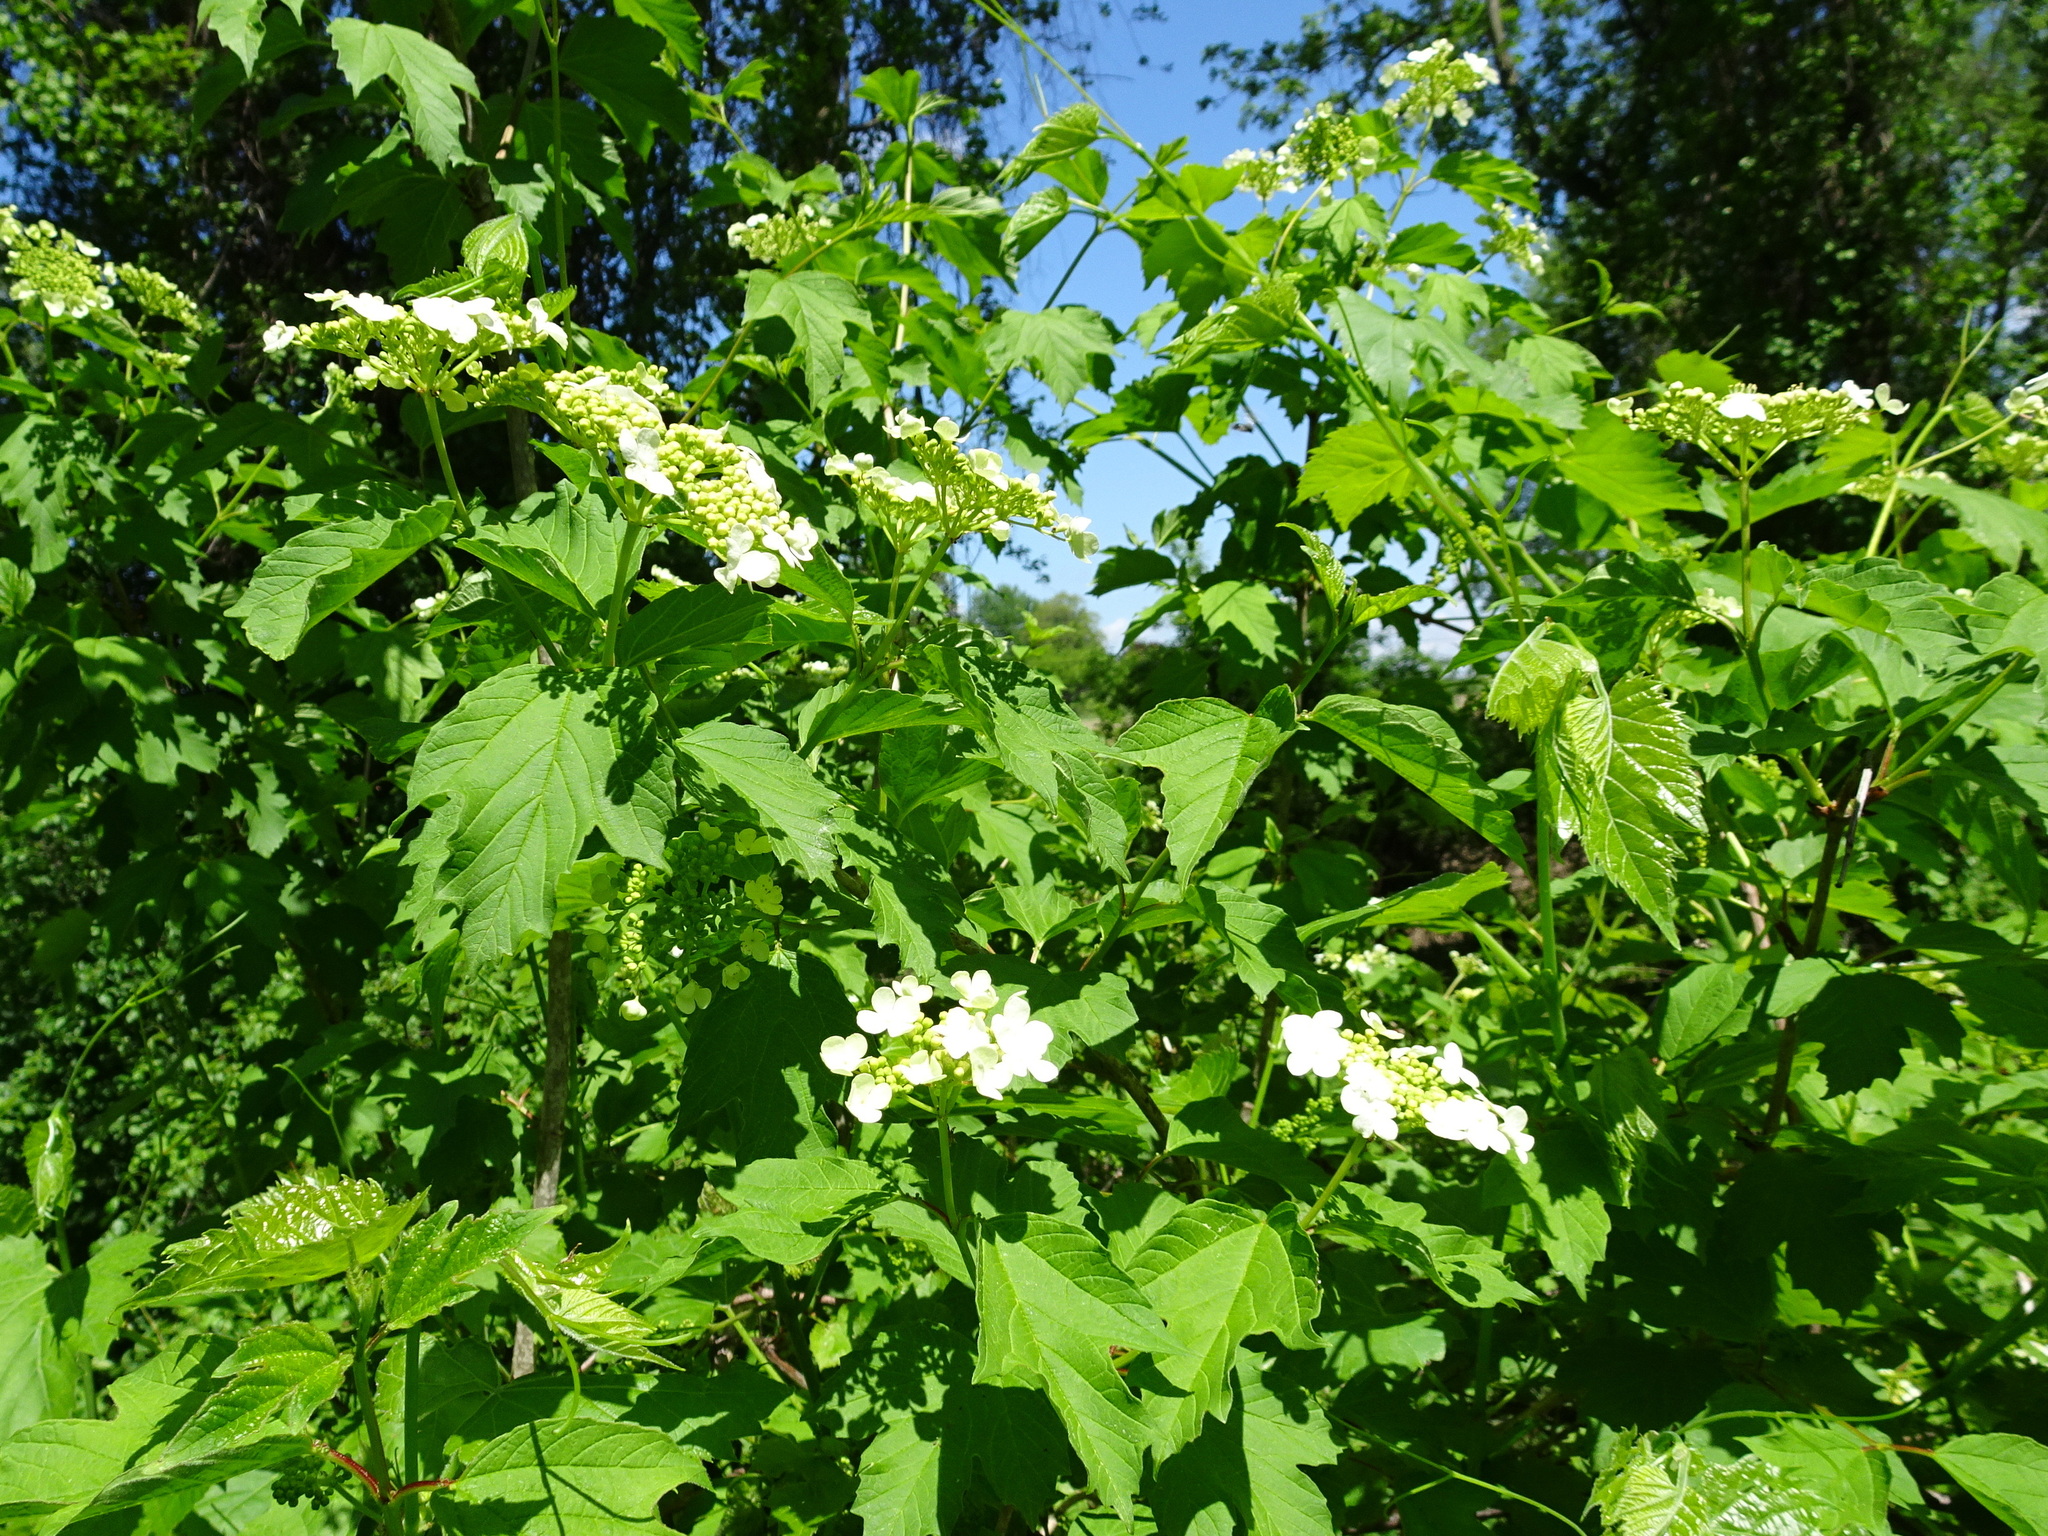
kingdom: Plantae
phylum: Tracheophyta
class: Magnoliopsida
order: Dipsacales
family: Viburnaceae
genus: Viburnum
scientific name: Viburnum opulus
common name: Guelder-rose
